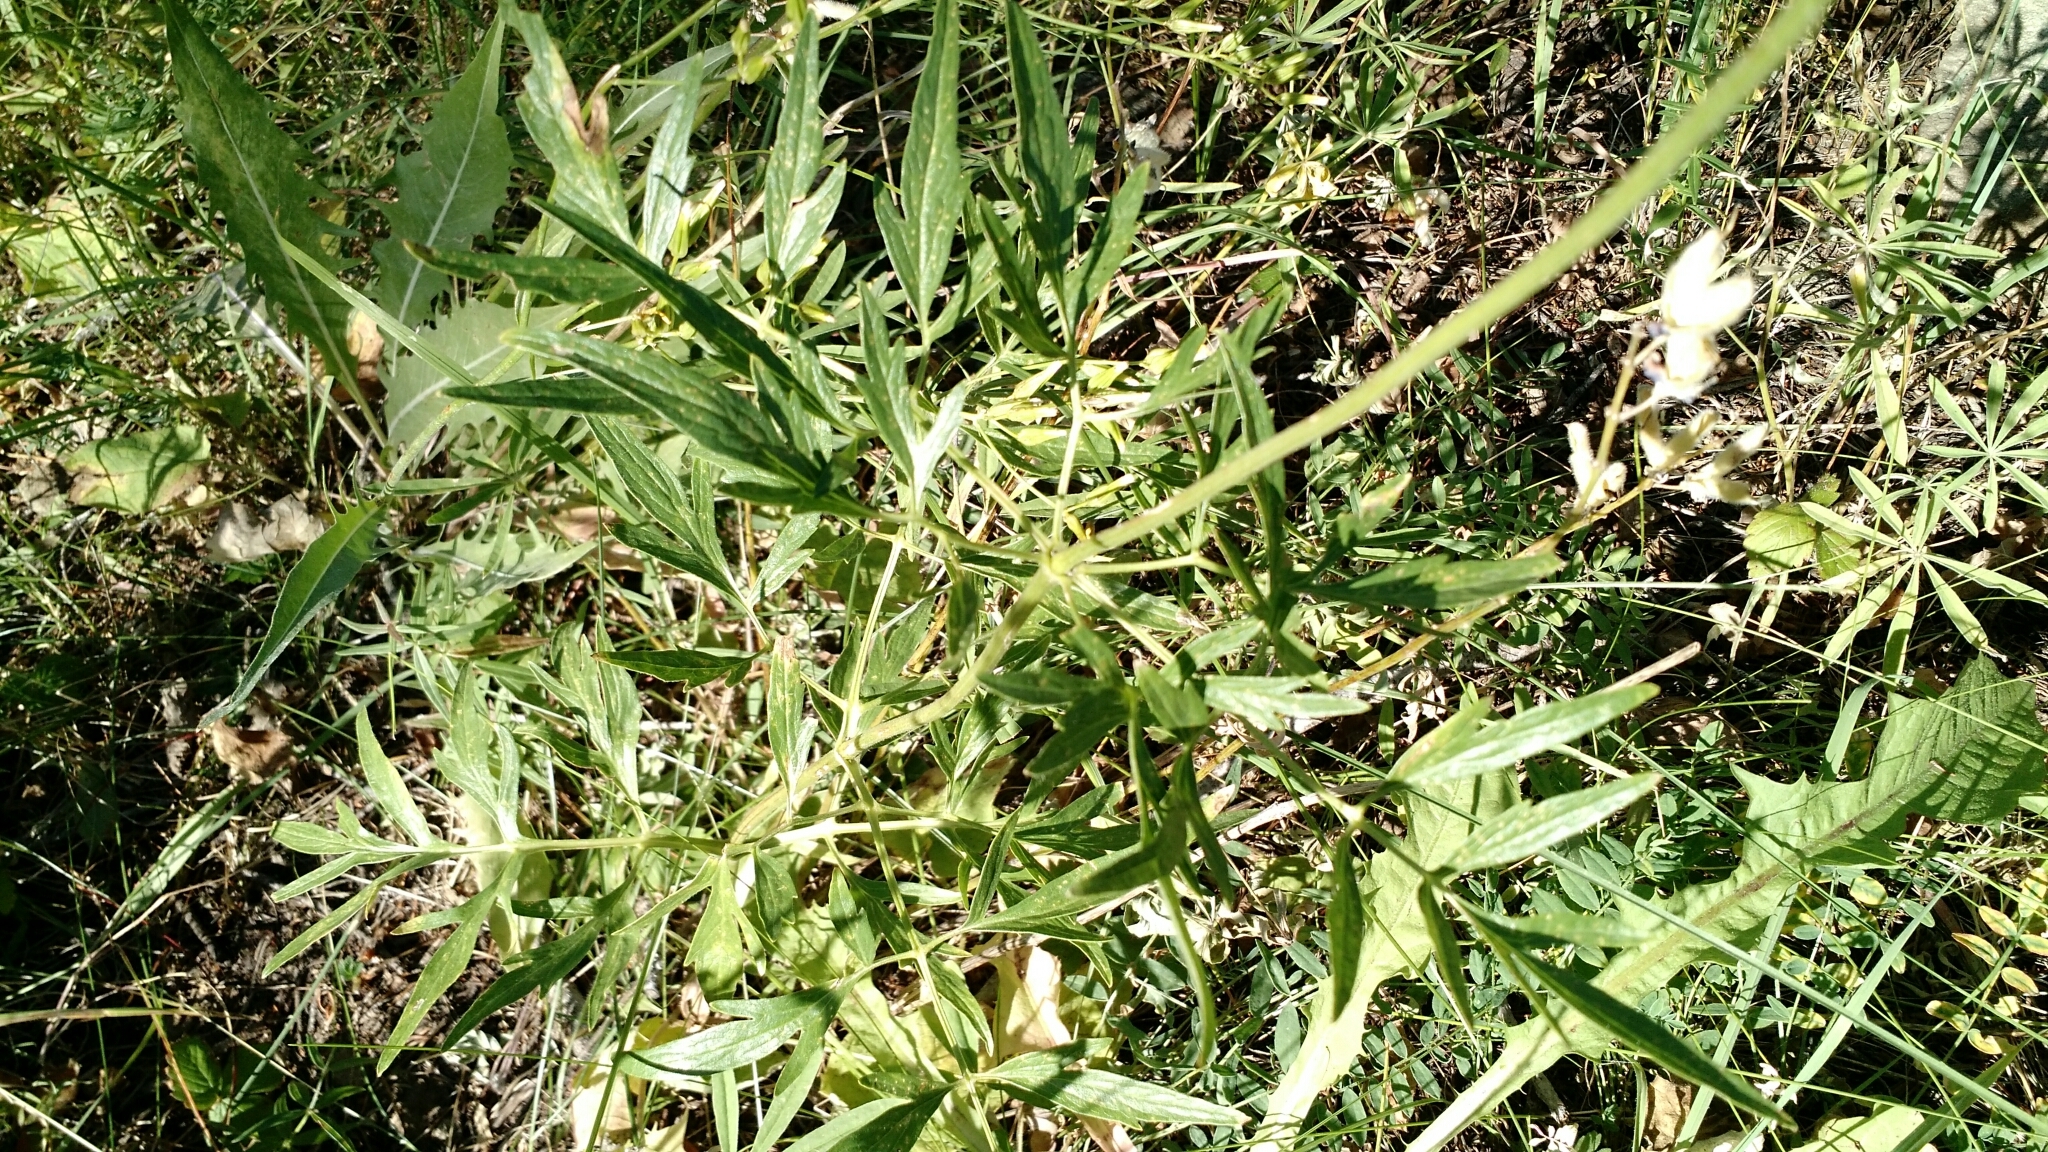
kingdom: Plantae
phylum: Tracheophyta
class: Magnoliopsida
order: Ranunculales
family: Ranunculaceae
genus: Clematis
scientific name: Clematis hirsutissima
